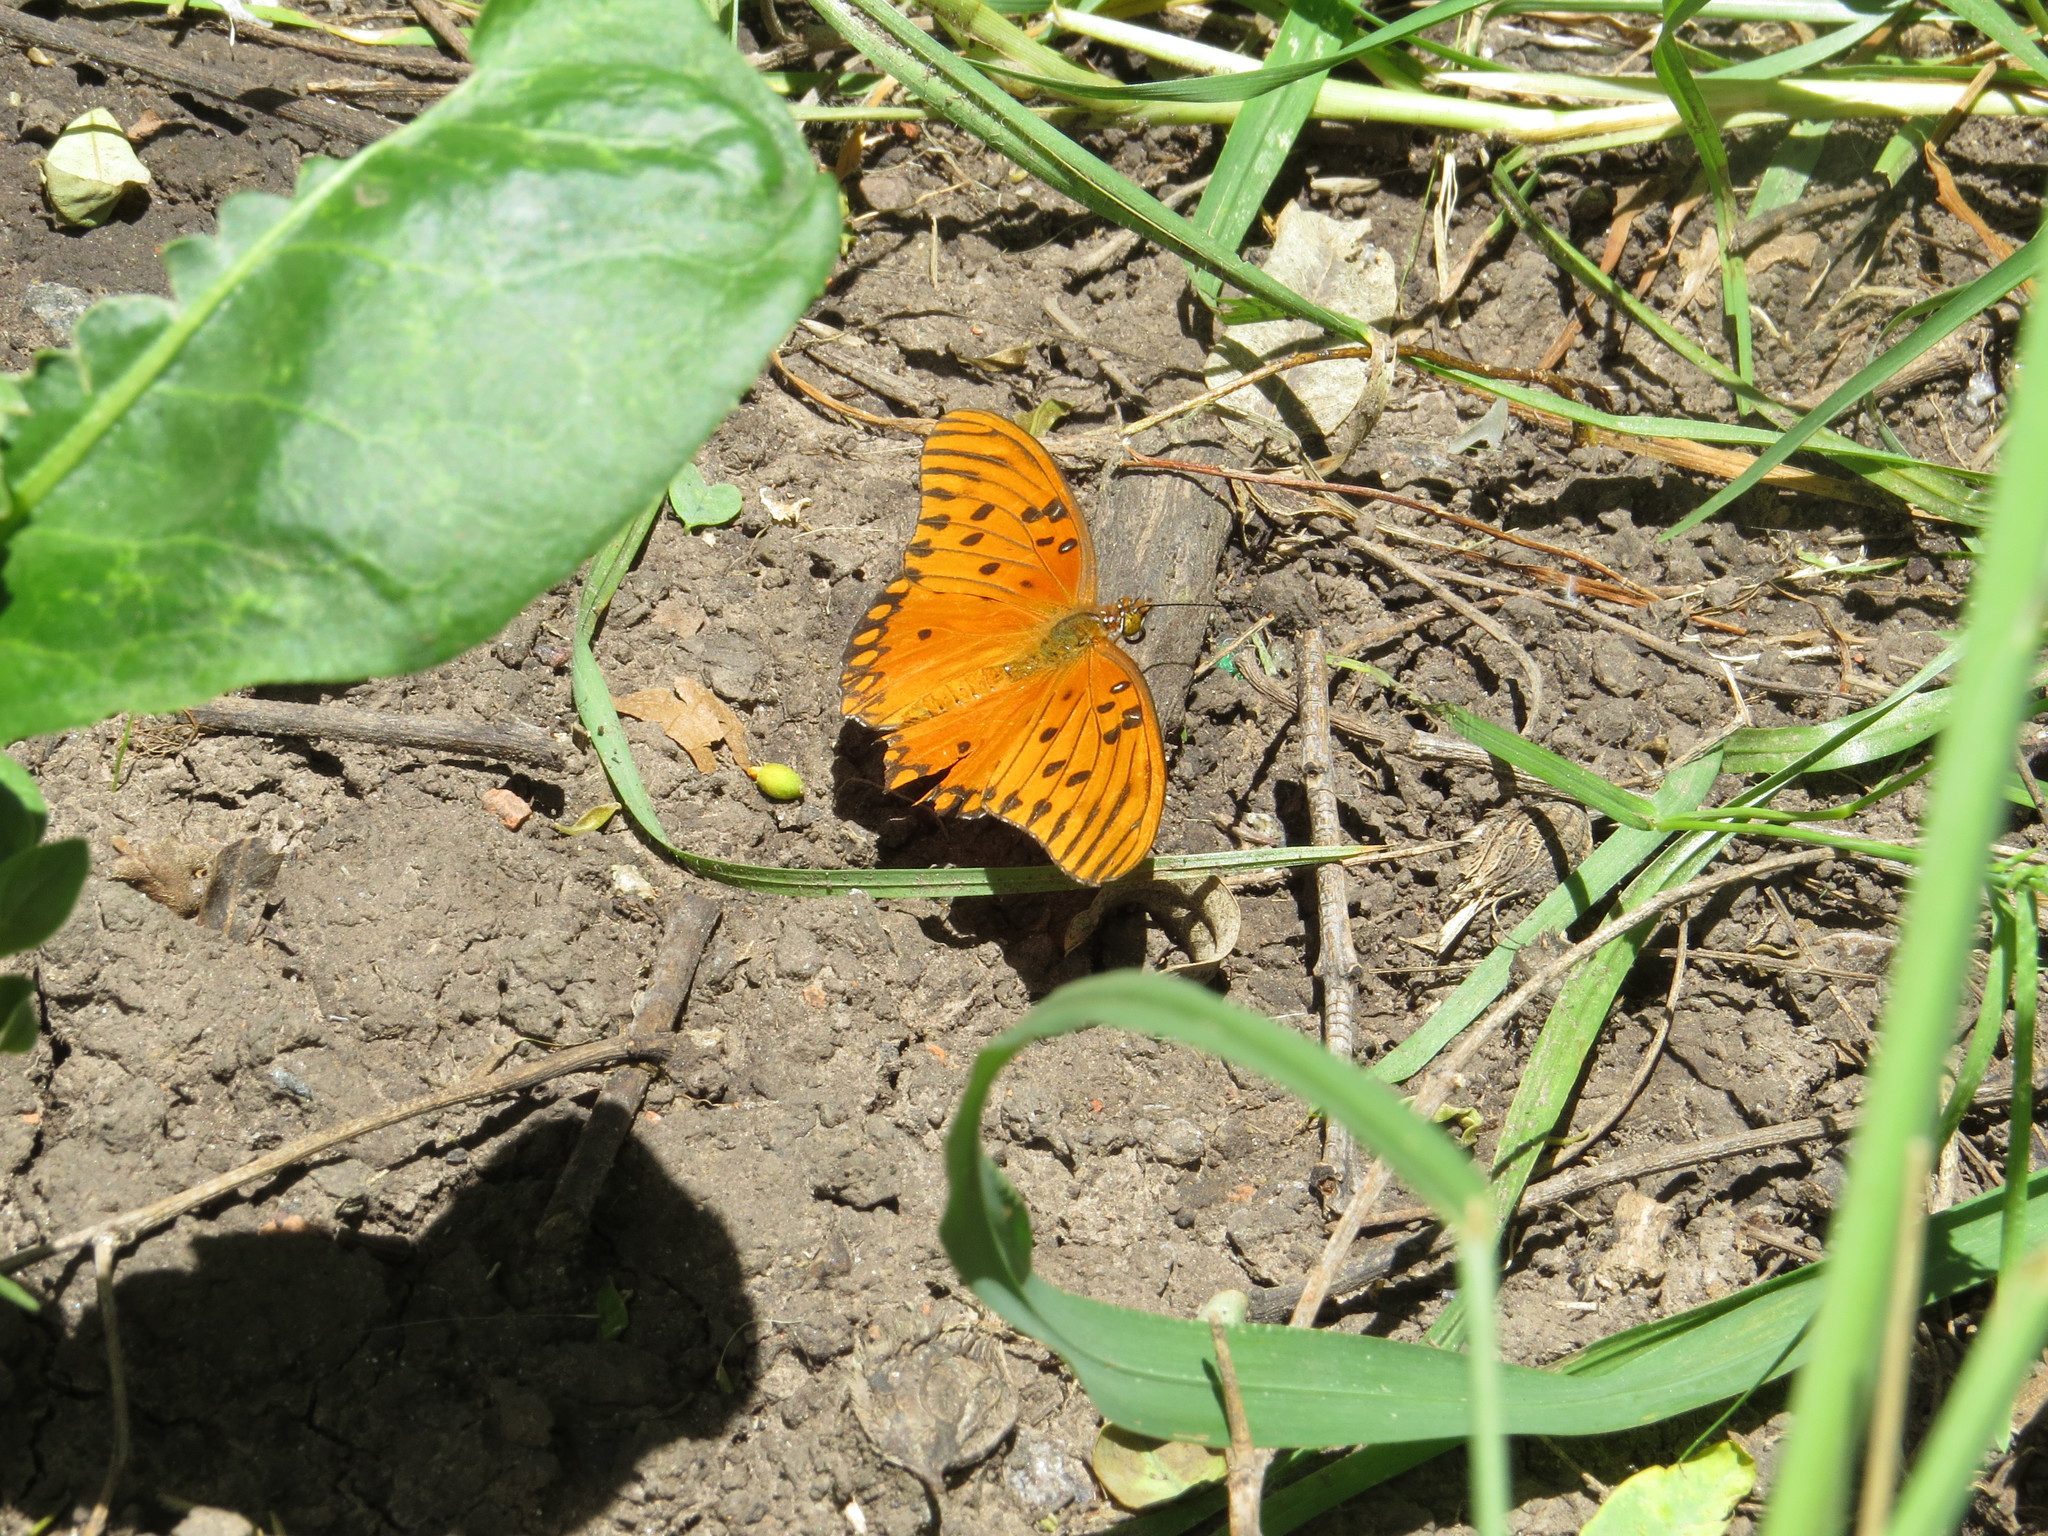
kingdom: Animalia
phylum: Arthropoda
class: Insecta
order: Lepidoptera
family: Nymphalidae
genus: Dione
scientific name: Dione vanillae
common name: Gulf fritillary
